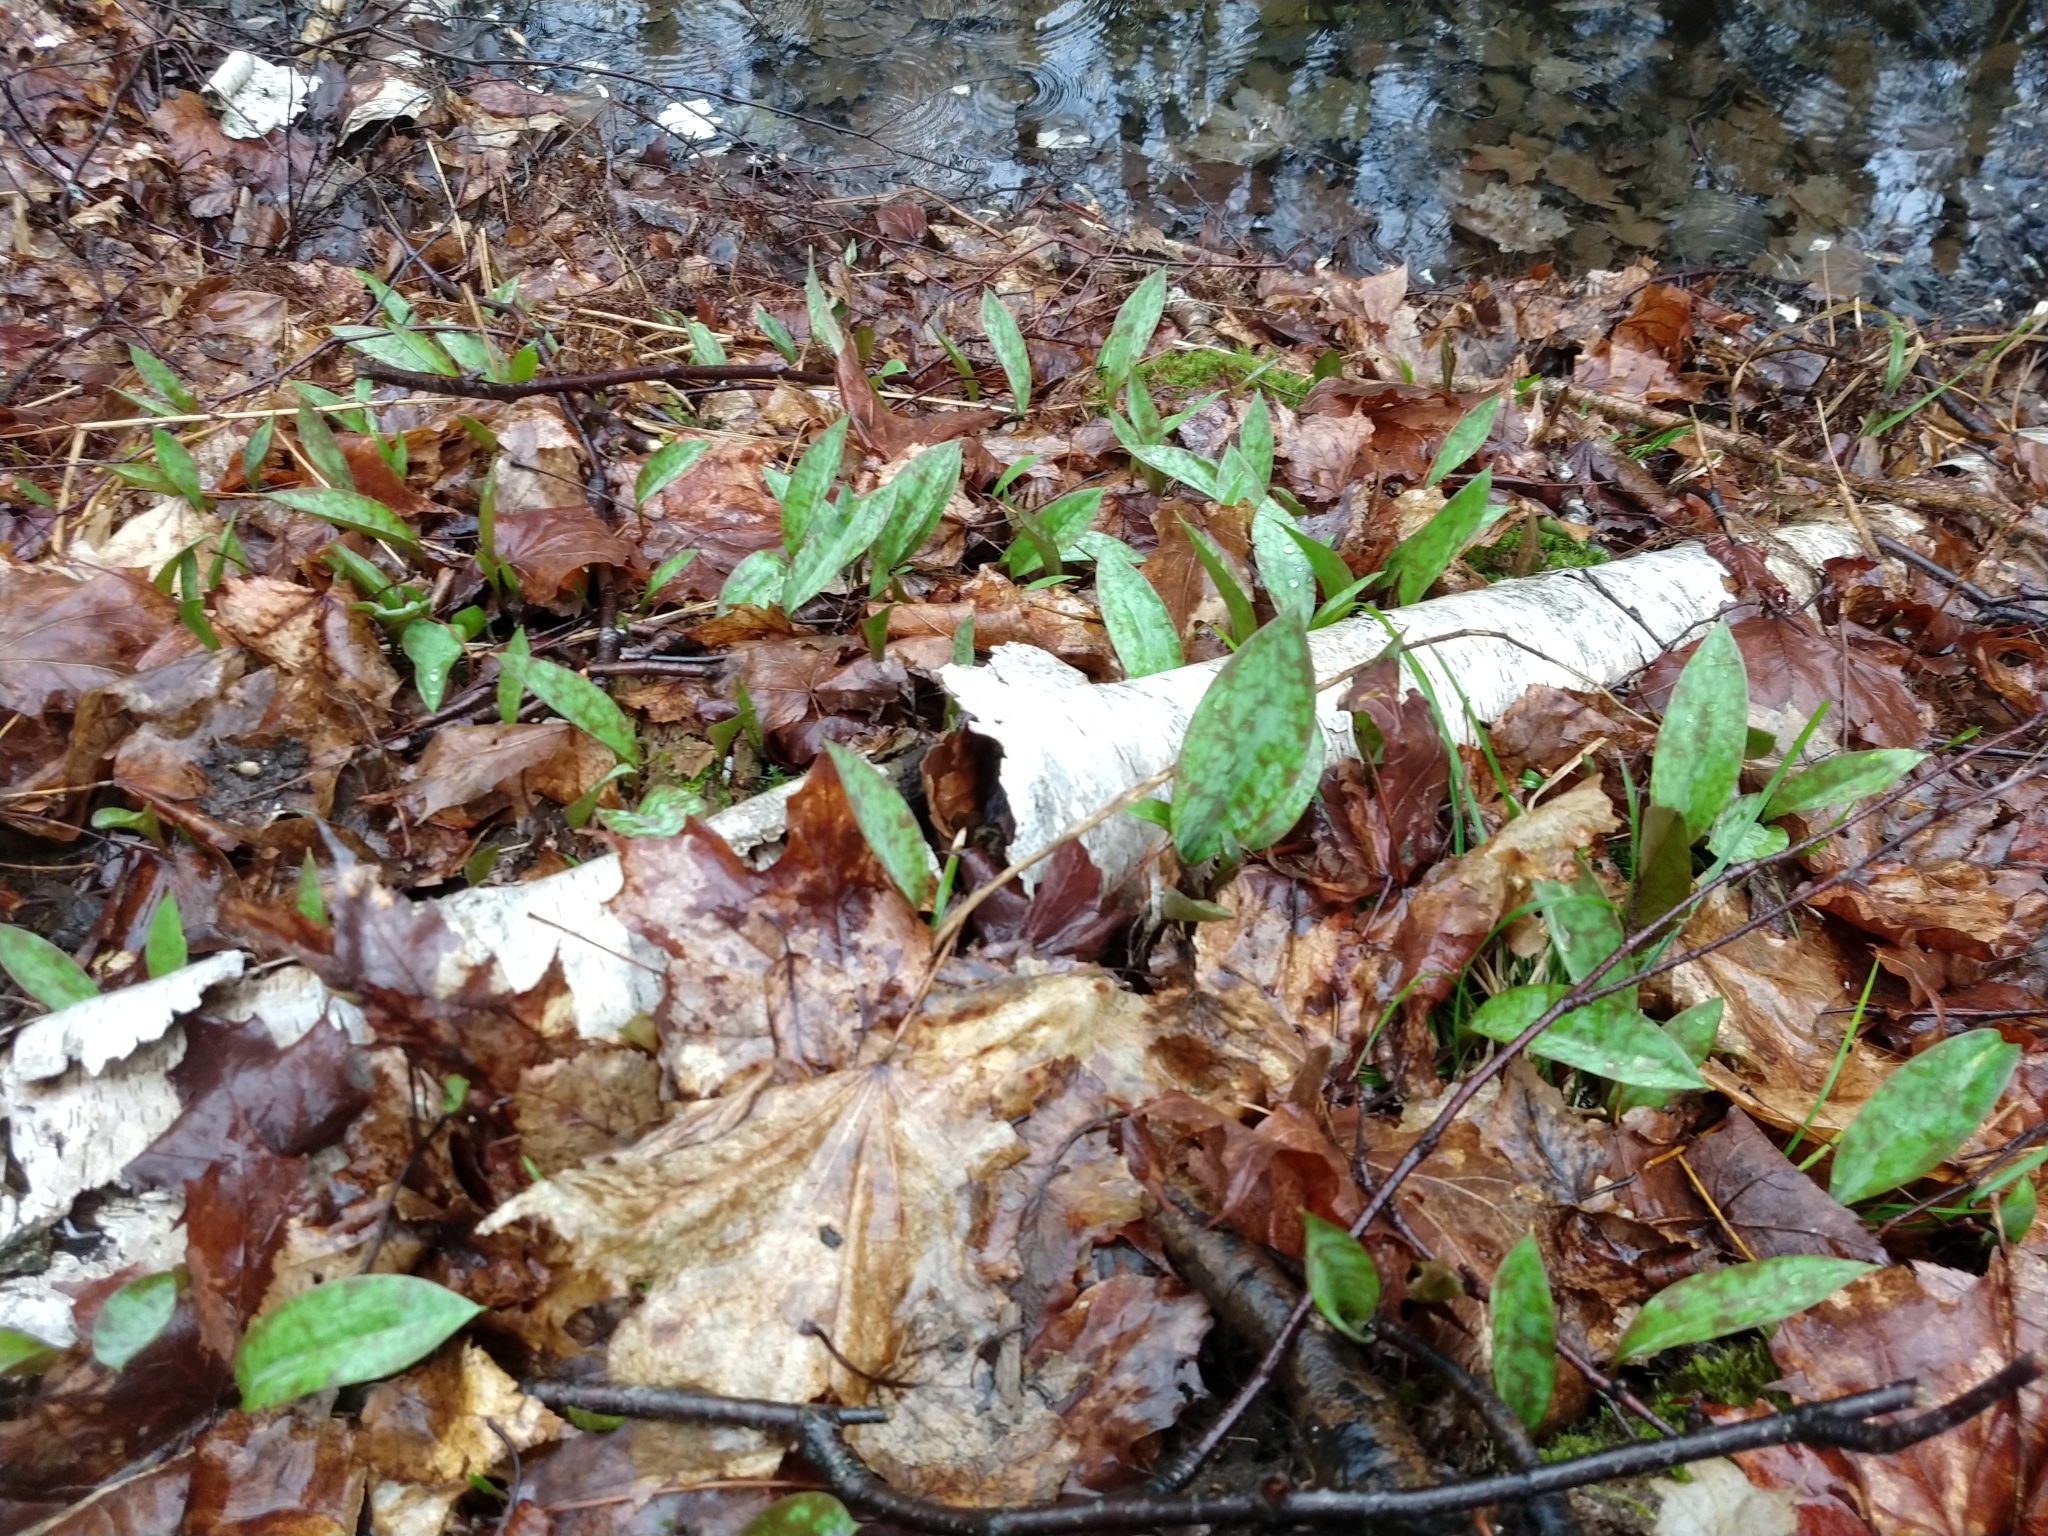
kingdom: Plantae
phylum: Tracheophyta
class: Liliopsida
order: Liliales
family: Liliaceae
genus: Erythronium
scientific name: Erythronium americanum
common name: Yellow adder's-tongue
